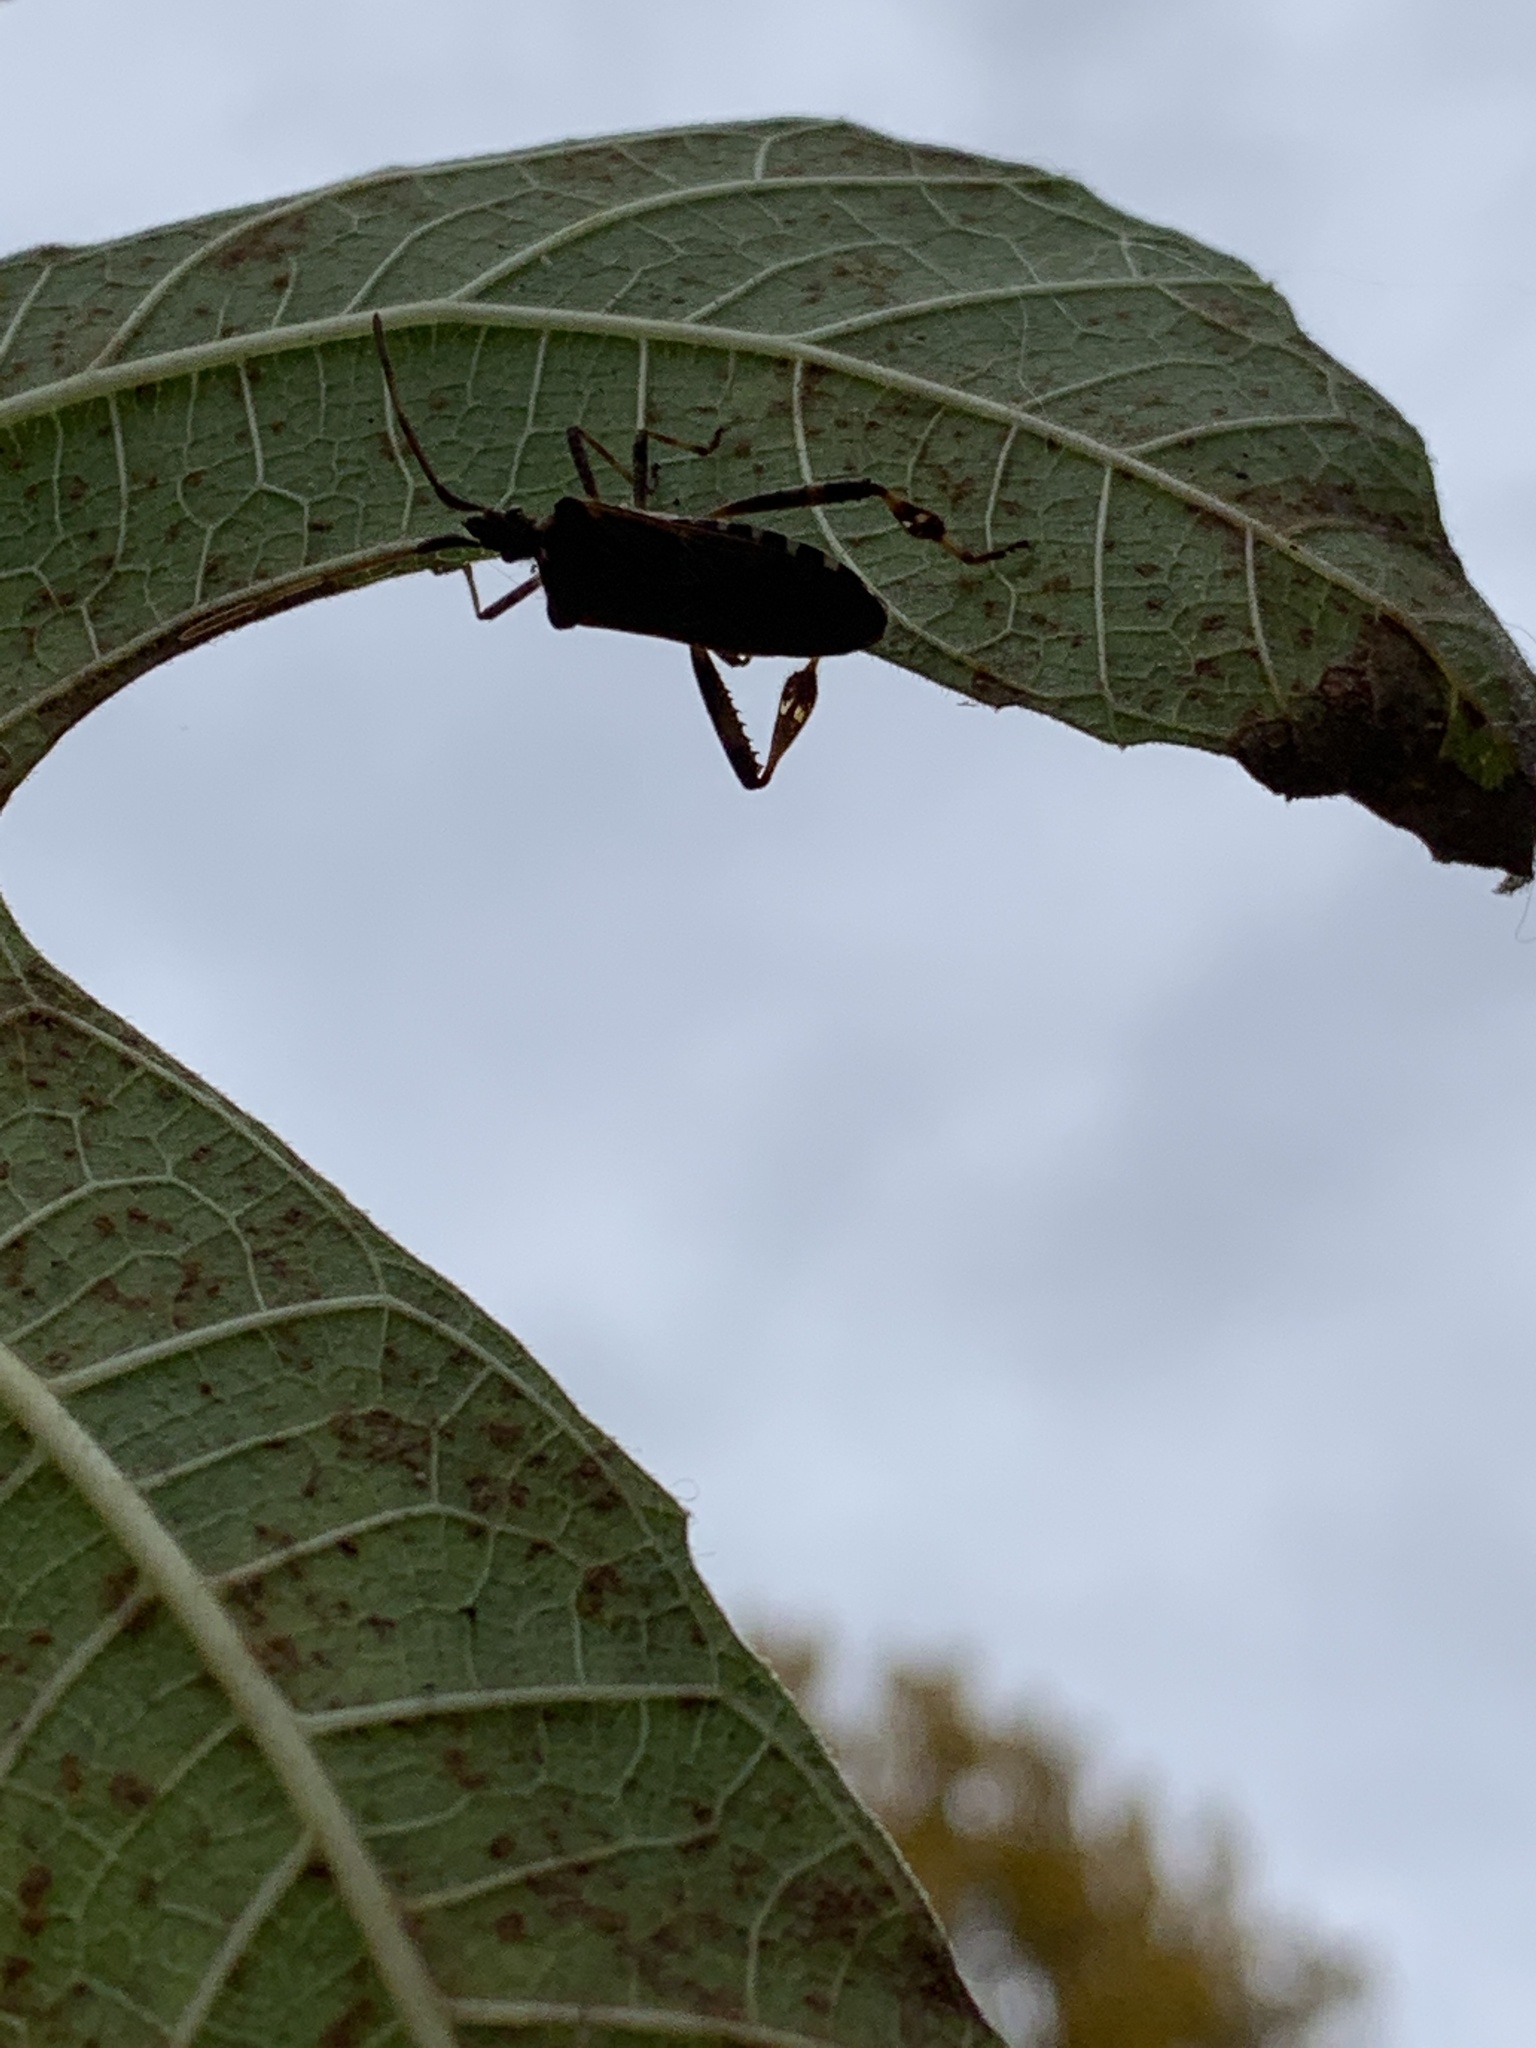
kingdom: Animalia
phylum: Arthropoda
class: Insecta
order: Hemiptera
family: Coreidae
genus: Leptoglossus
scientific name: Leptoglossus occidentalis
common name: Western conifer-seed bug
